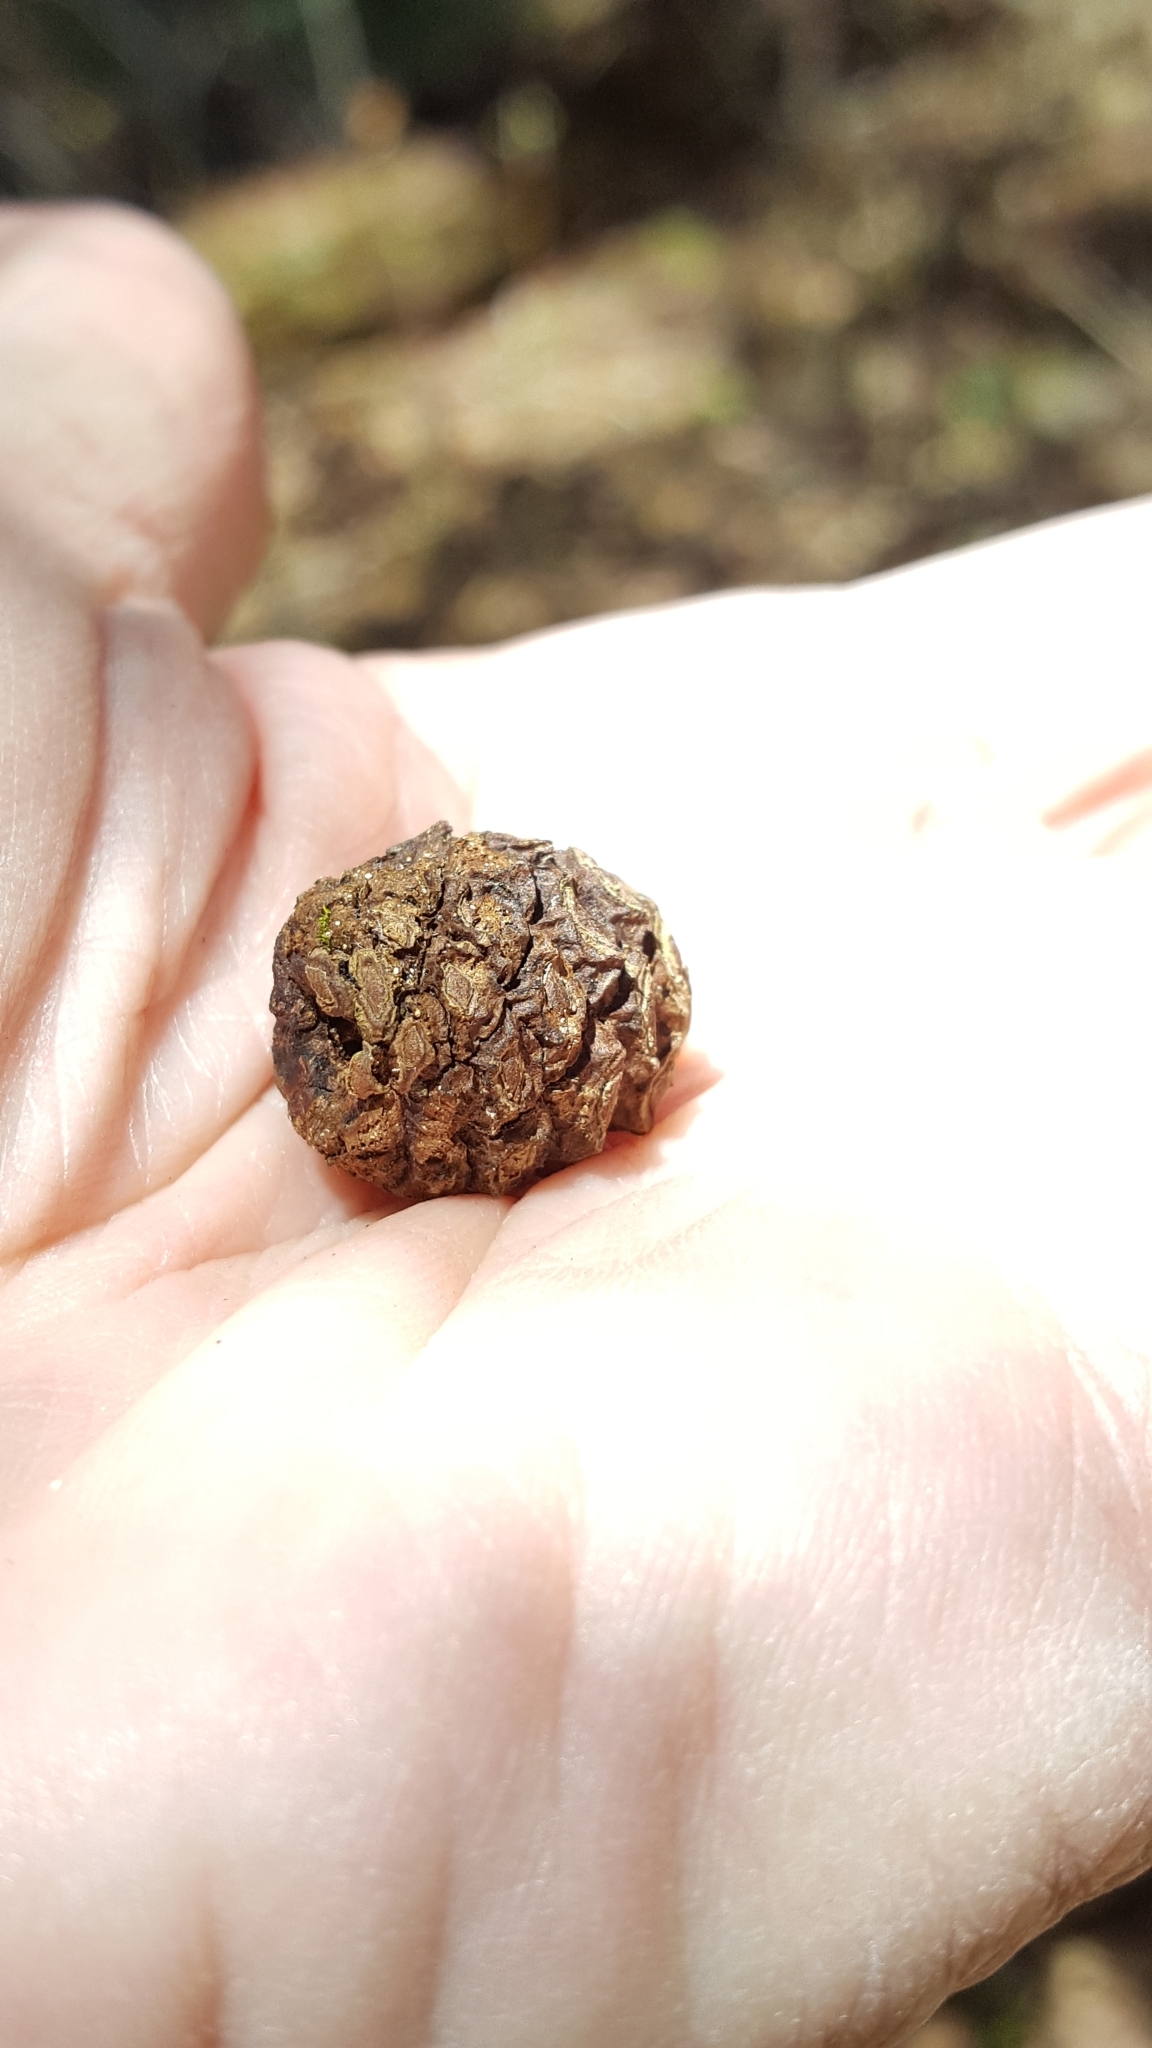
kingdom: Plantae
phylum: Tracheophyta
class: Pinopsida
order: Pinales
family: Pinaceae
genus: Picea
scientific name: Picea mariana
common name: Black spruce
